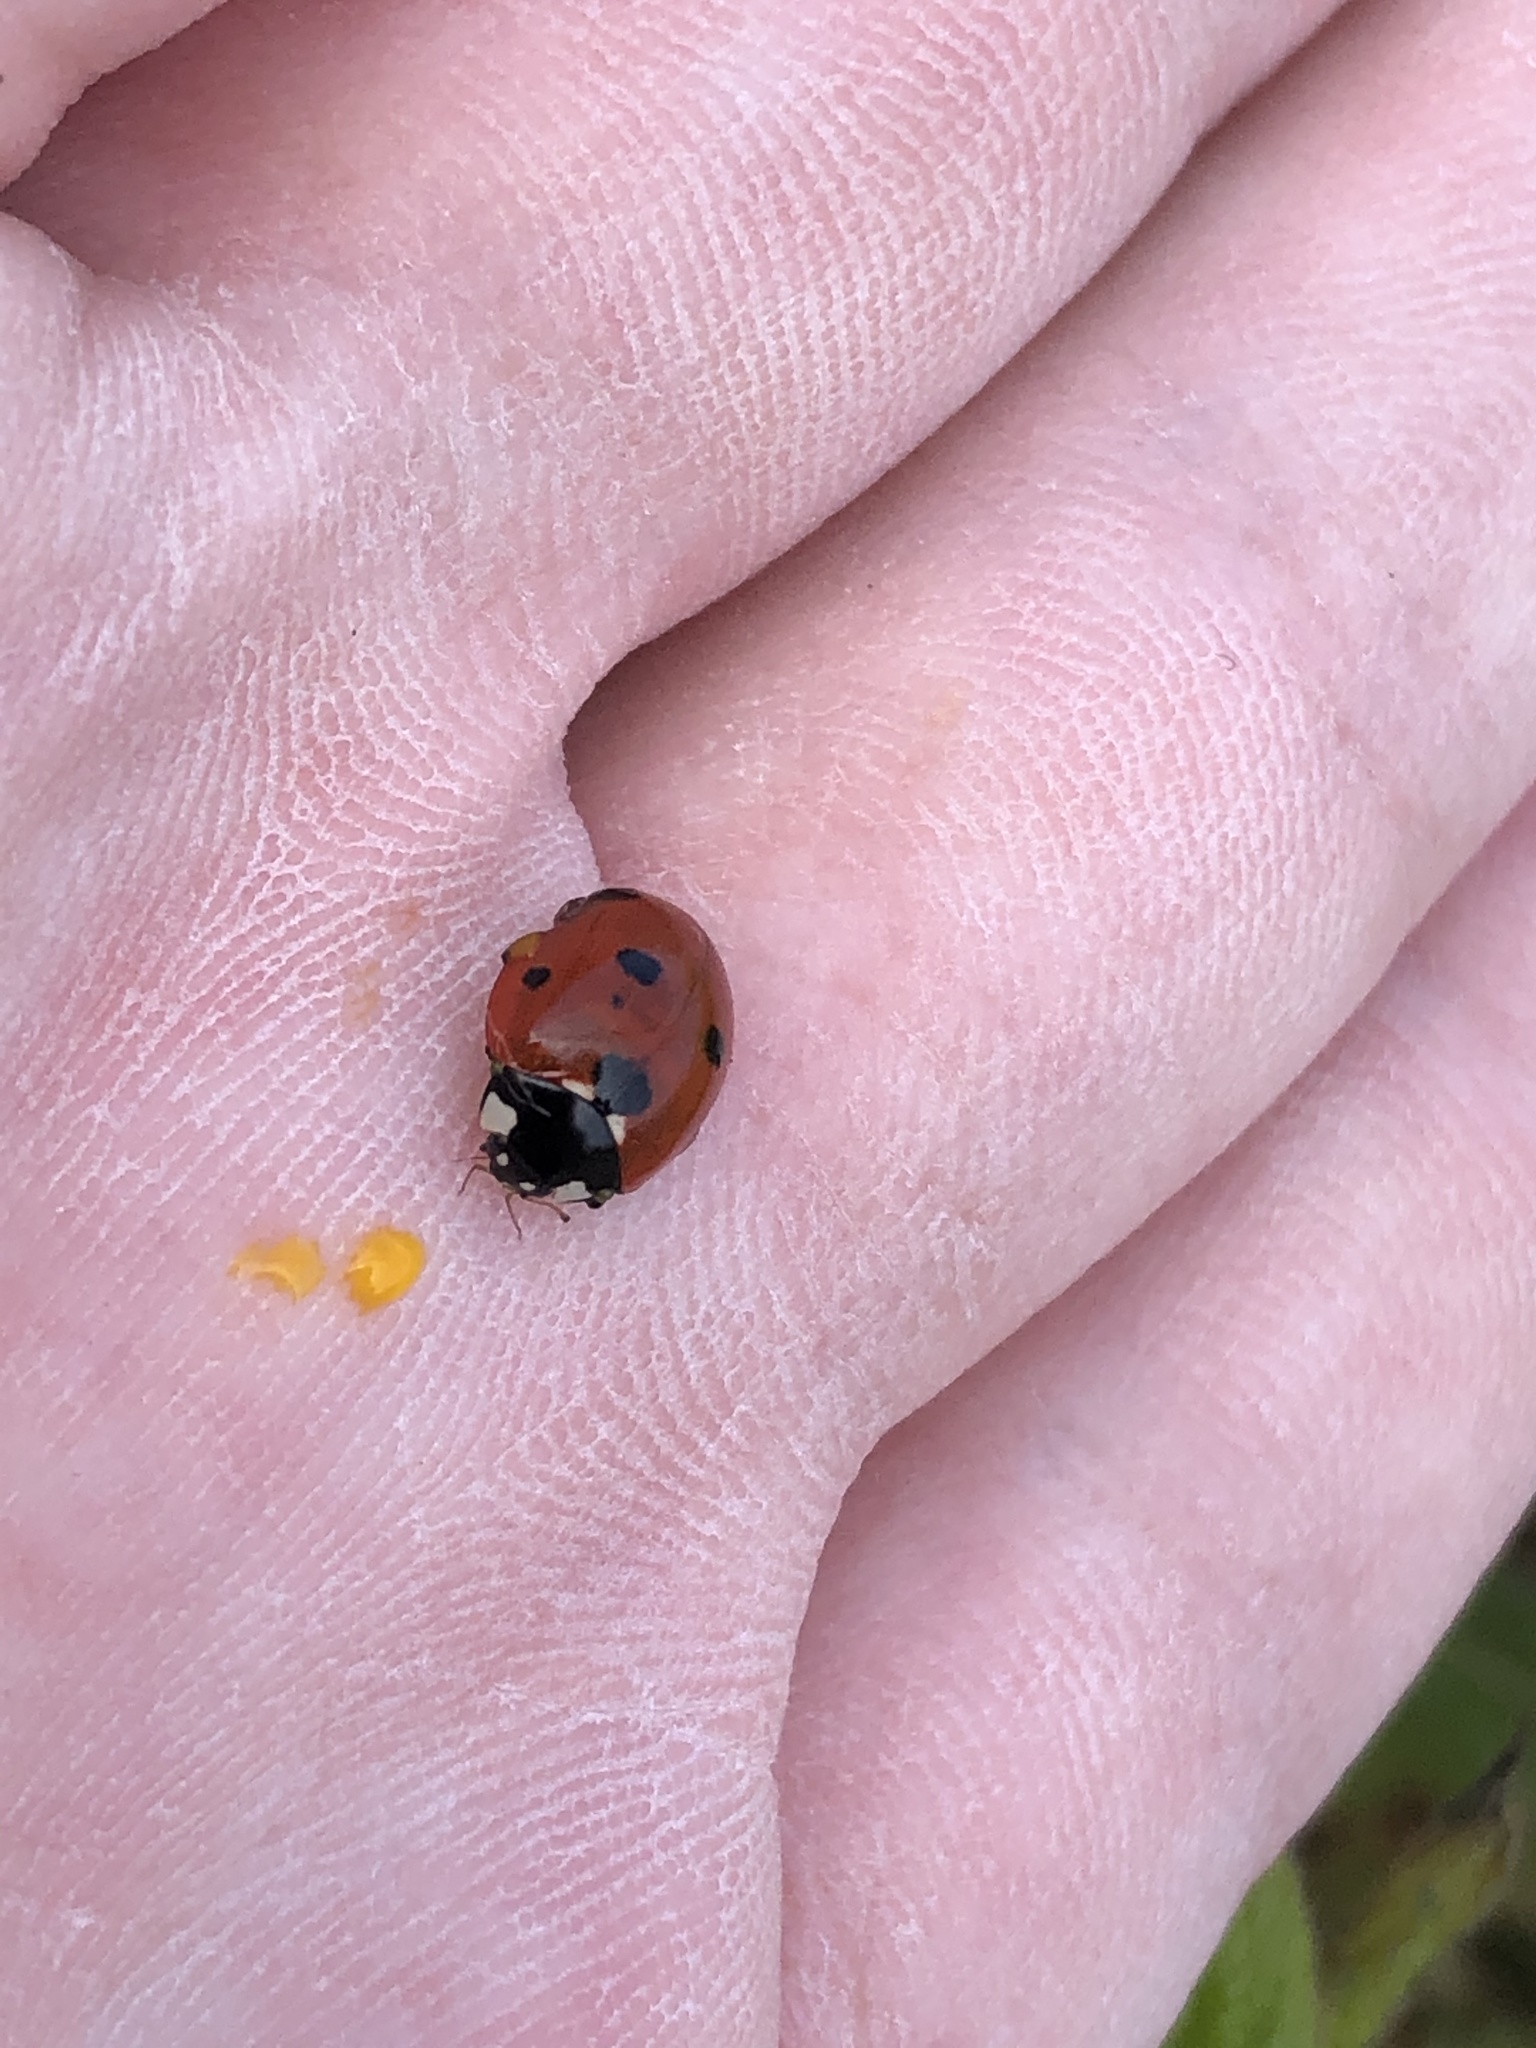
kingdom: Animalia
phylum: Arthropoda
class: Insecta
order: Coleoptera
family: Coccinellidae
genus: Coccinella
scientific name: Coccinella septempunctata
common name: Sevenspotted lady beetle
